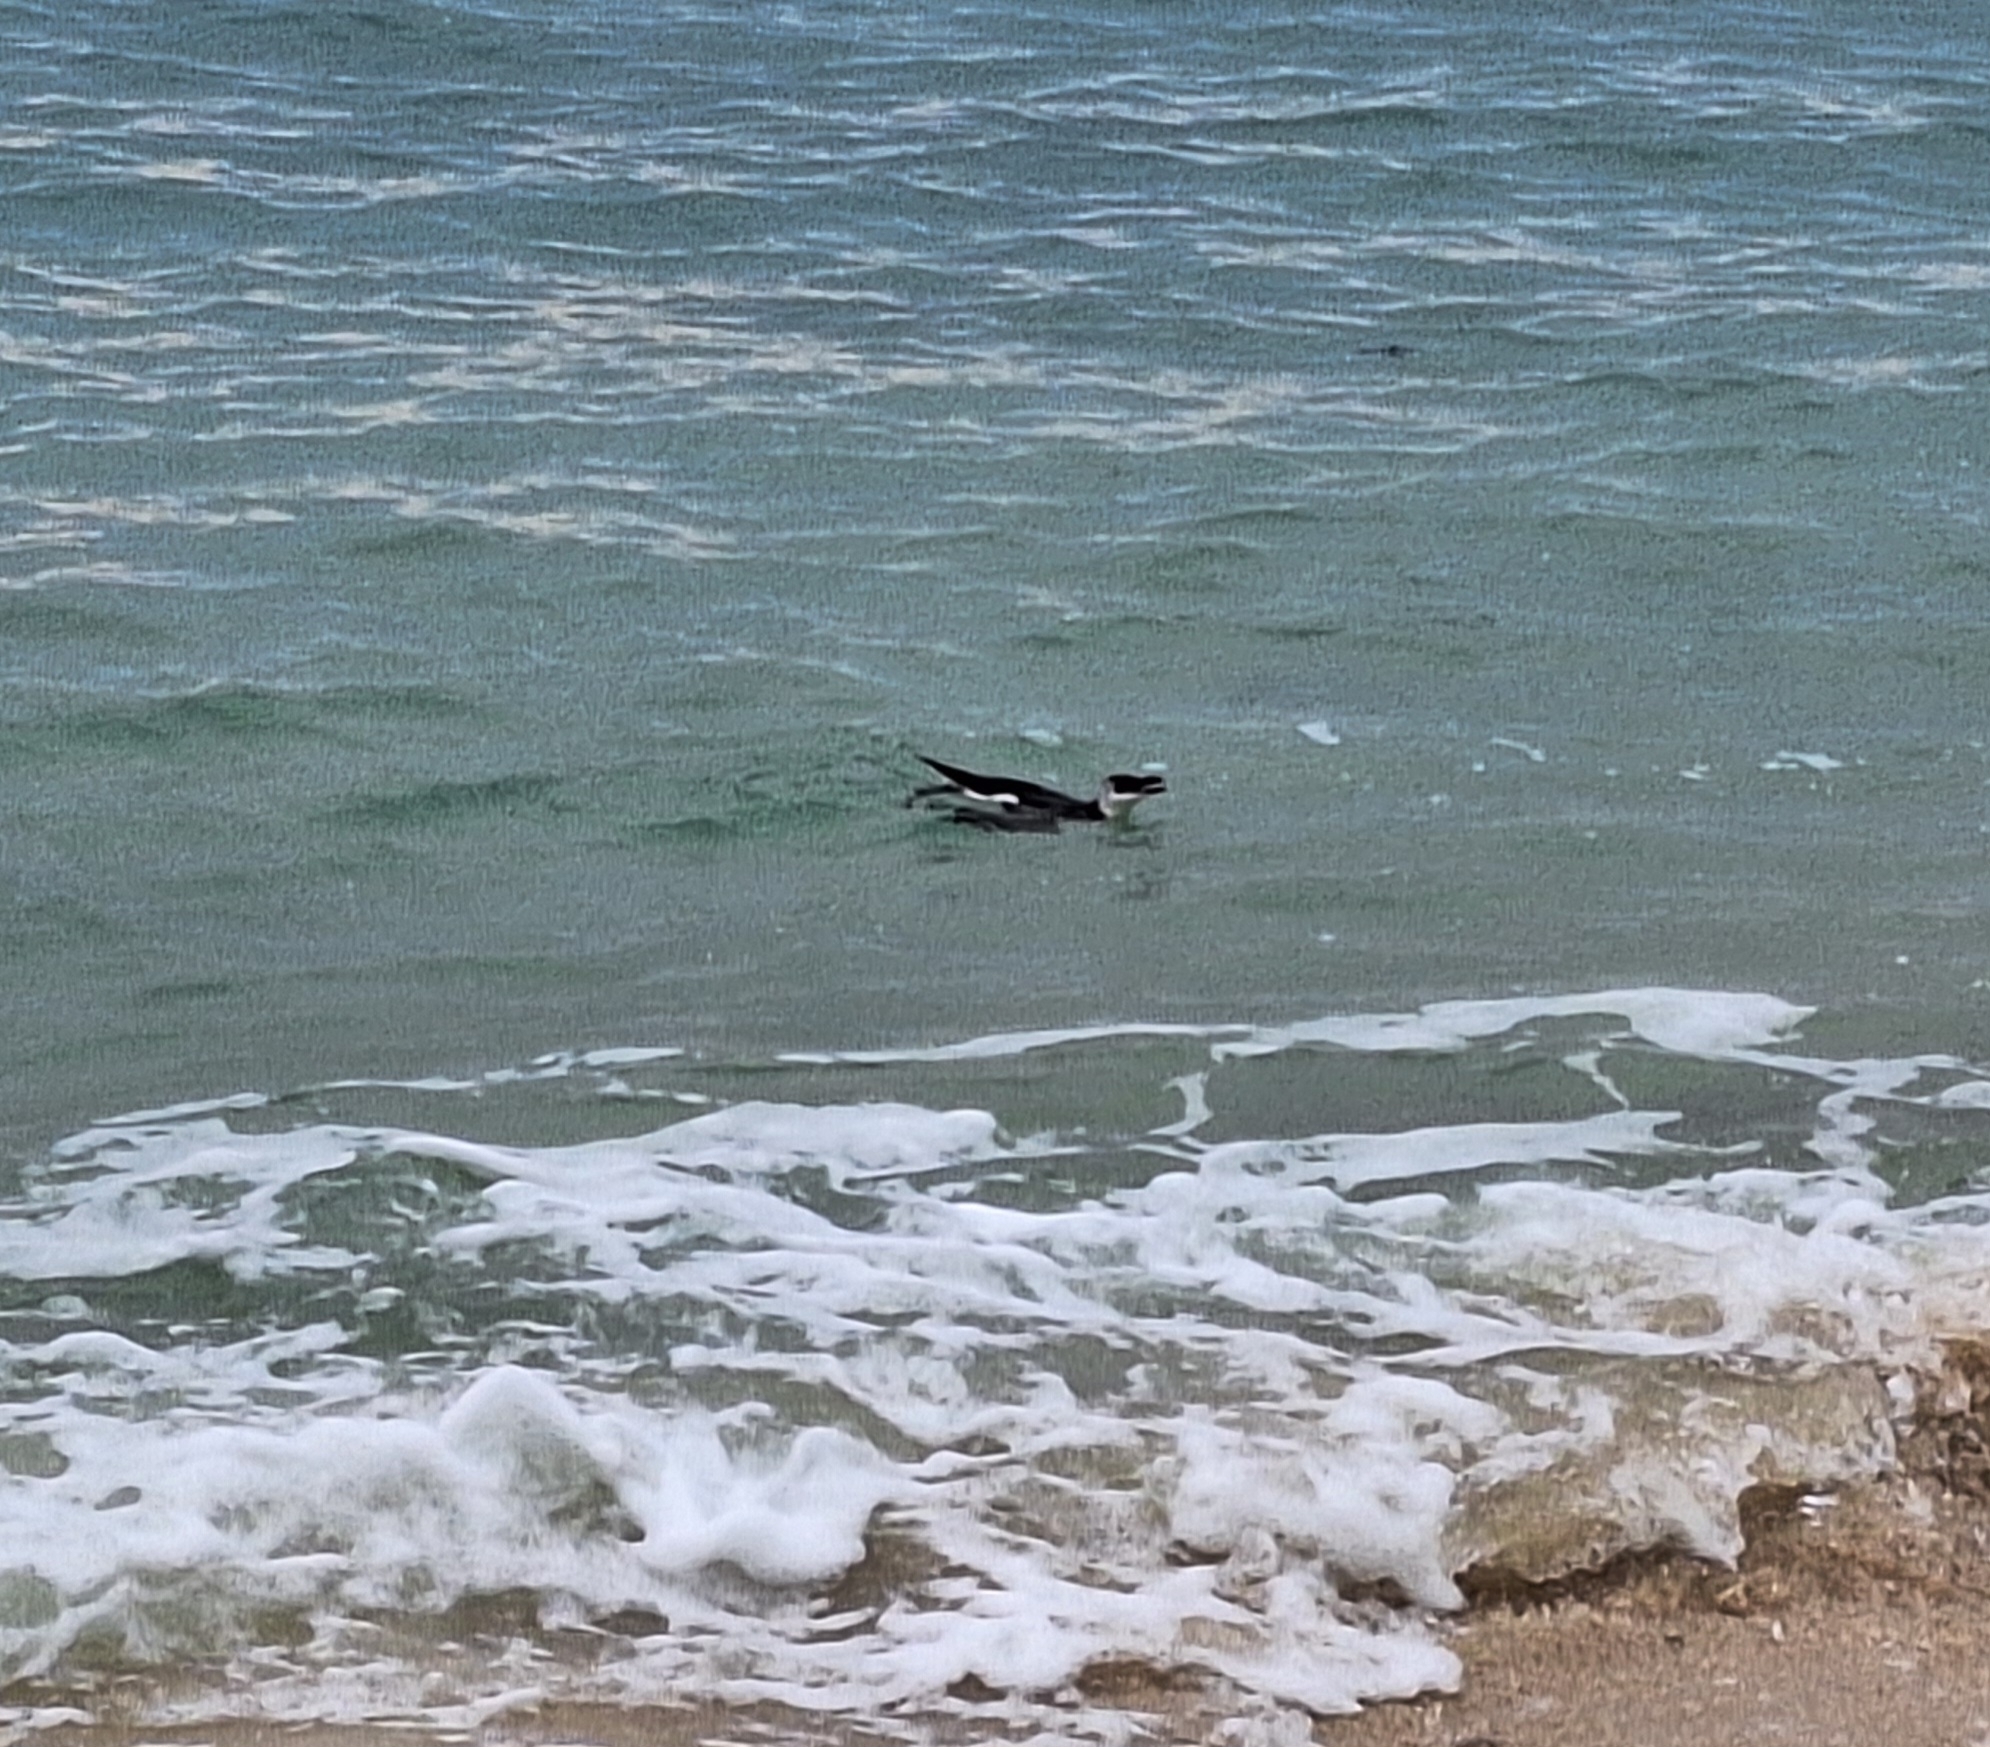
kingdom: Animalia
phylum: Chordata
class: Aves
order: Charadriiformes
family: Alcidae
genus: Alca
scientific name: Alca torda
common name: Razorbill
